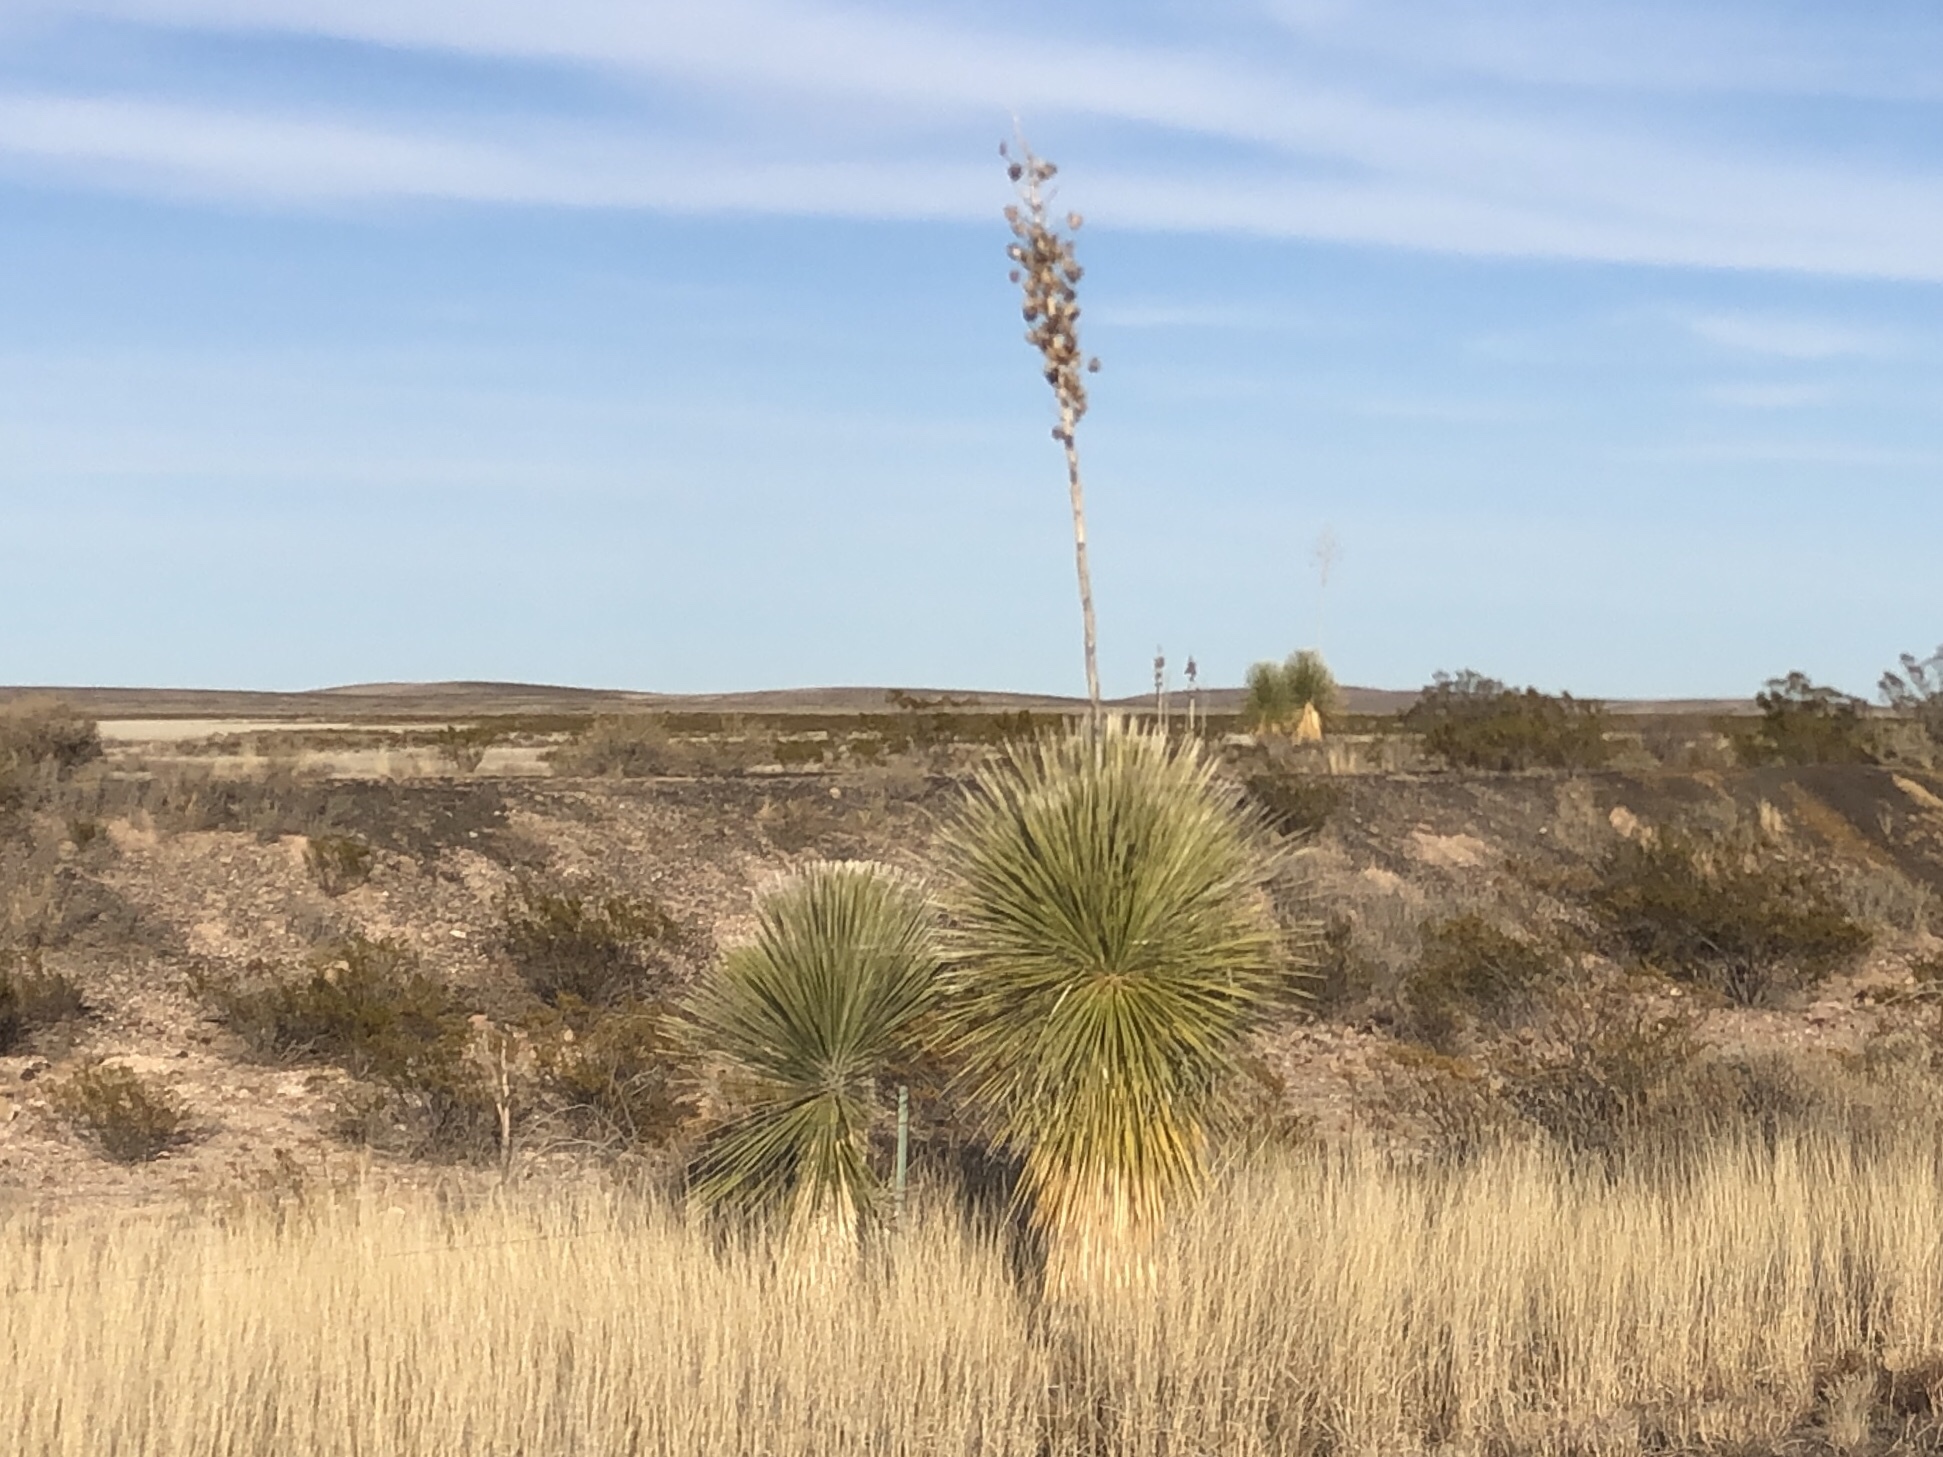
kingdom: Plantae
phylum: Tracheophyta
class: Liliopsida
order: Asparagales
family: Asparagaceae
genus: Yucca
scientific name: Yucca elata
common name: Palmella
